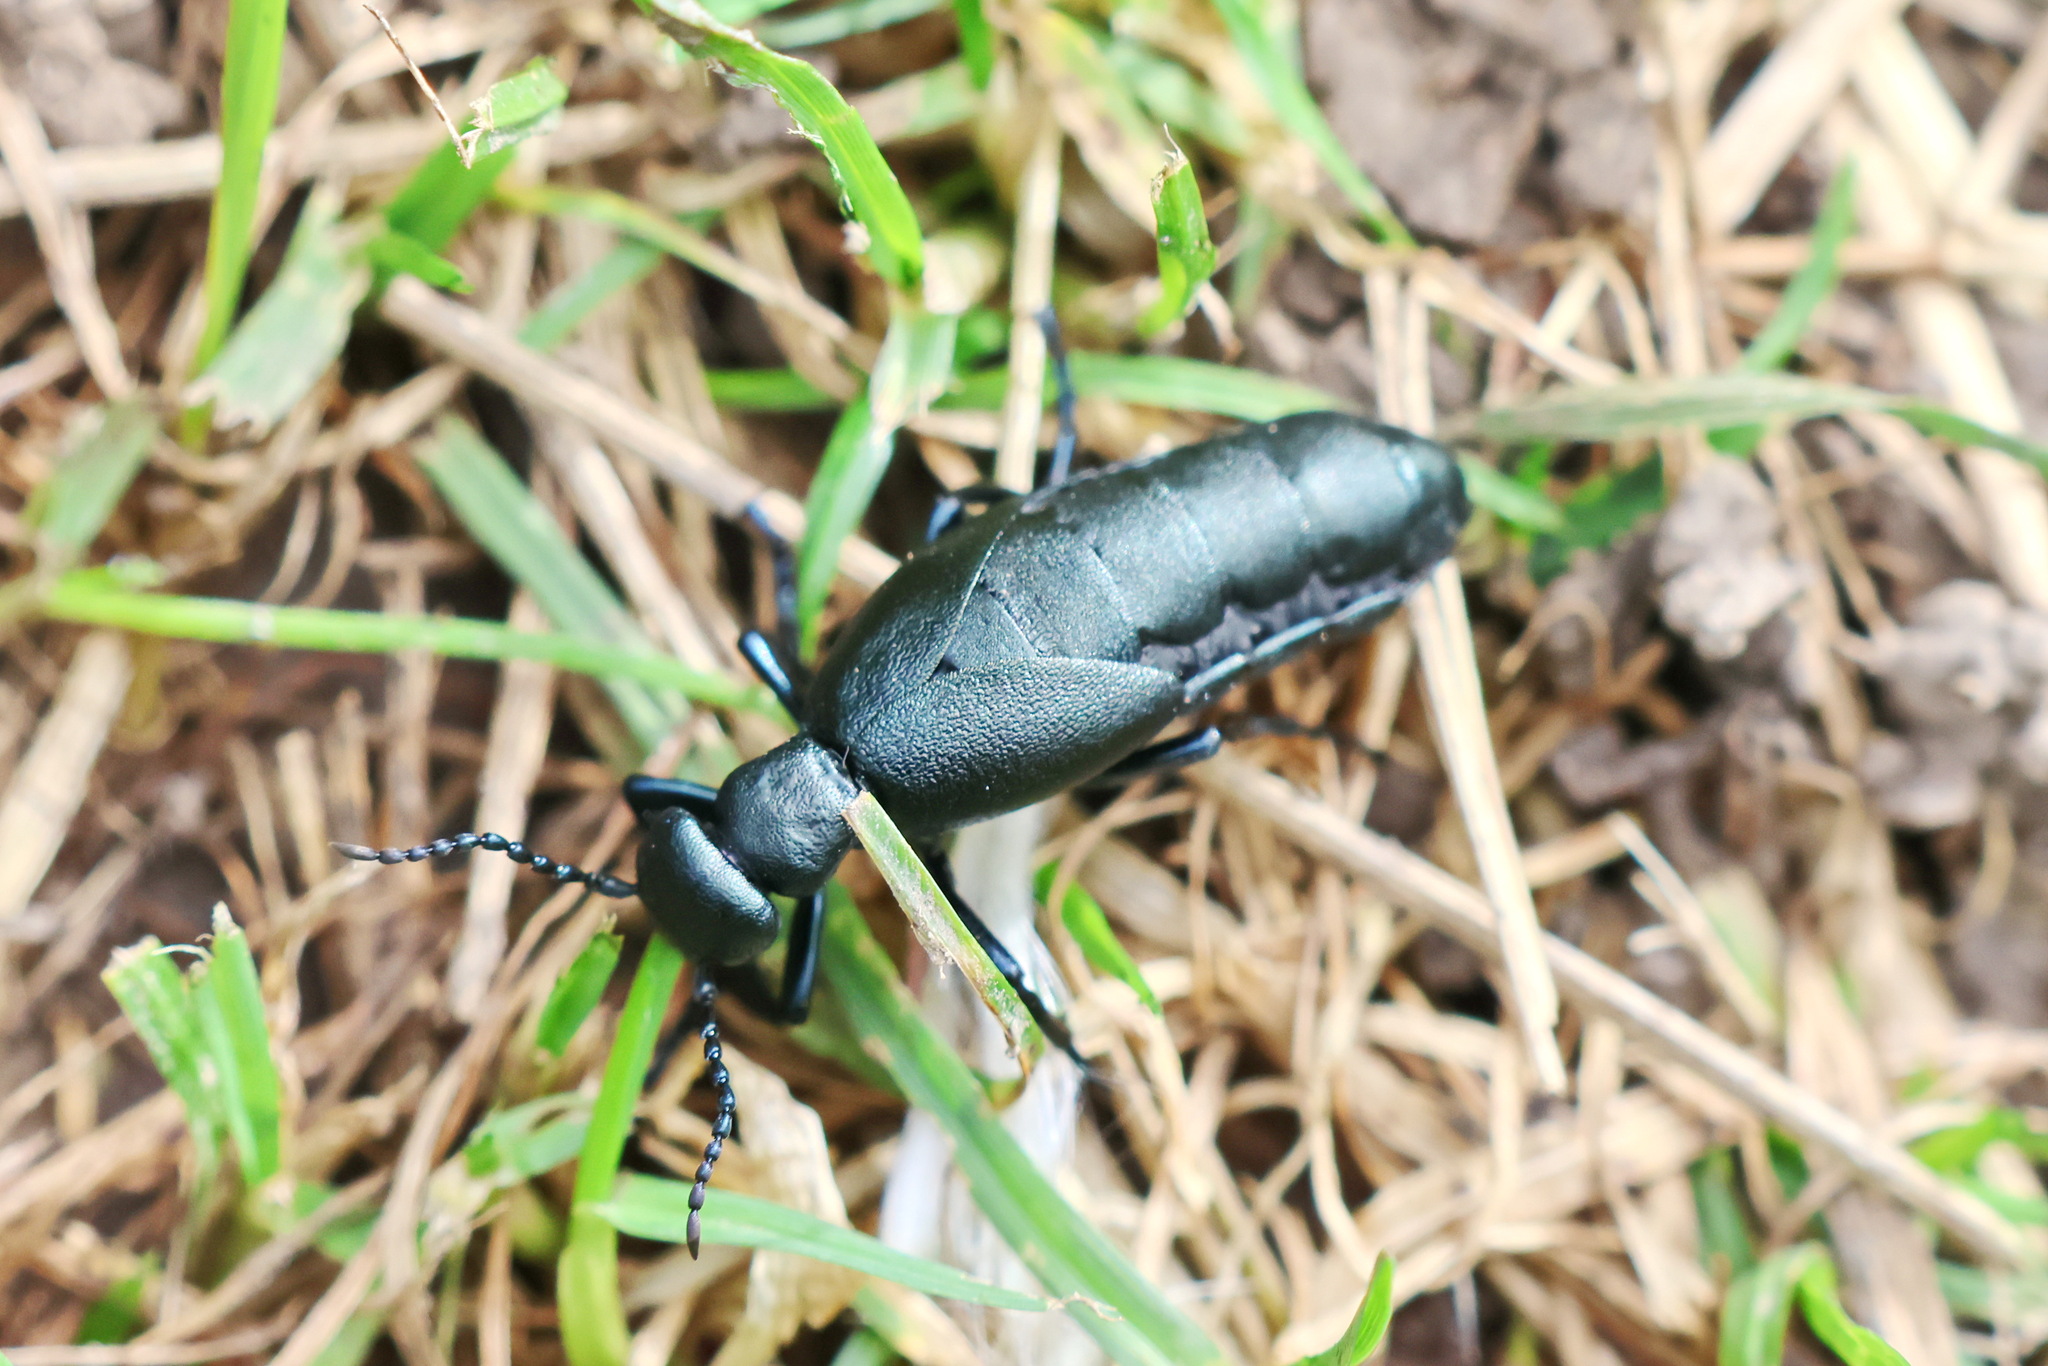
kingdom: Animalia
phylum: Arthropoda
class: Insecta
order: Coleoptera
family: Meloidae
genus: Meloe
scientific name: Meloe campanicollis
